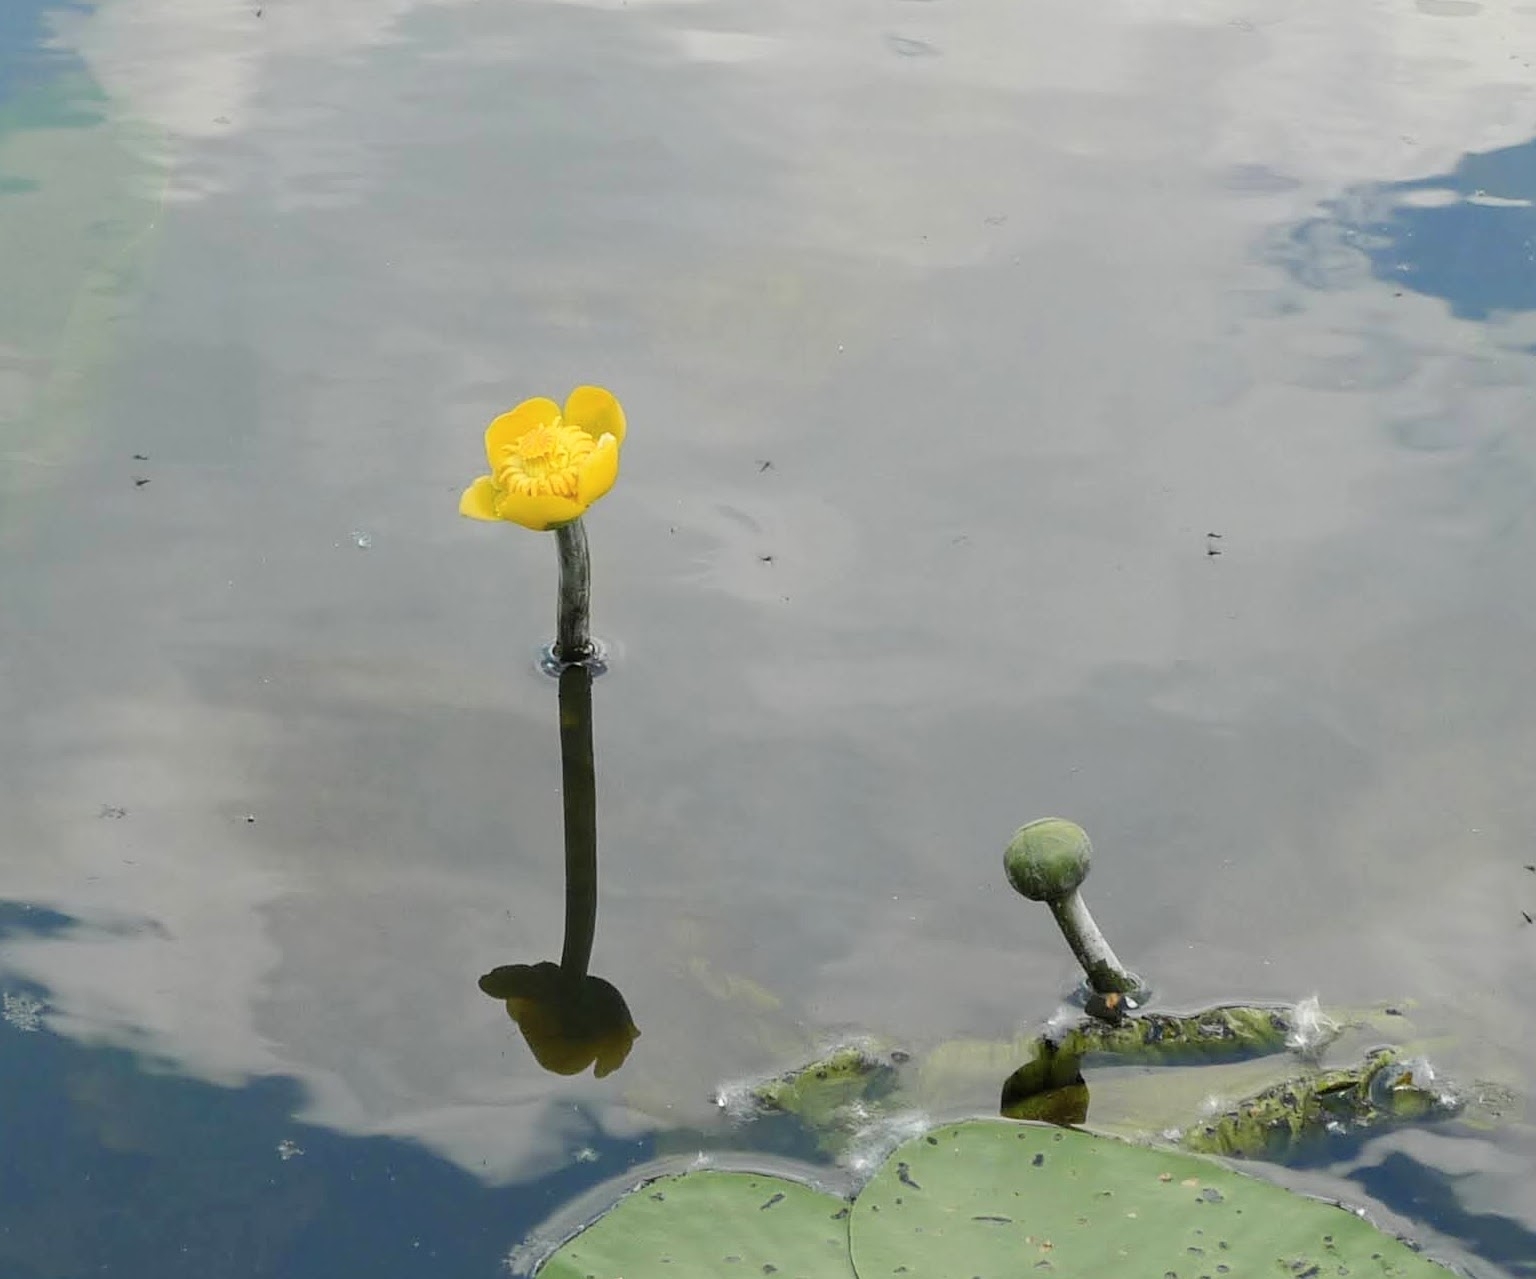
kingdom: Plantae
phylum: Tracheophyta
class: Magnoliopsida
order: Nymphaeales
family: Nymphaeaceae
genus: Nuphar
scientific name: Nuphar lutea
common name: Yellow water-lily
